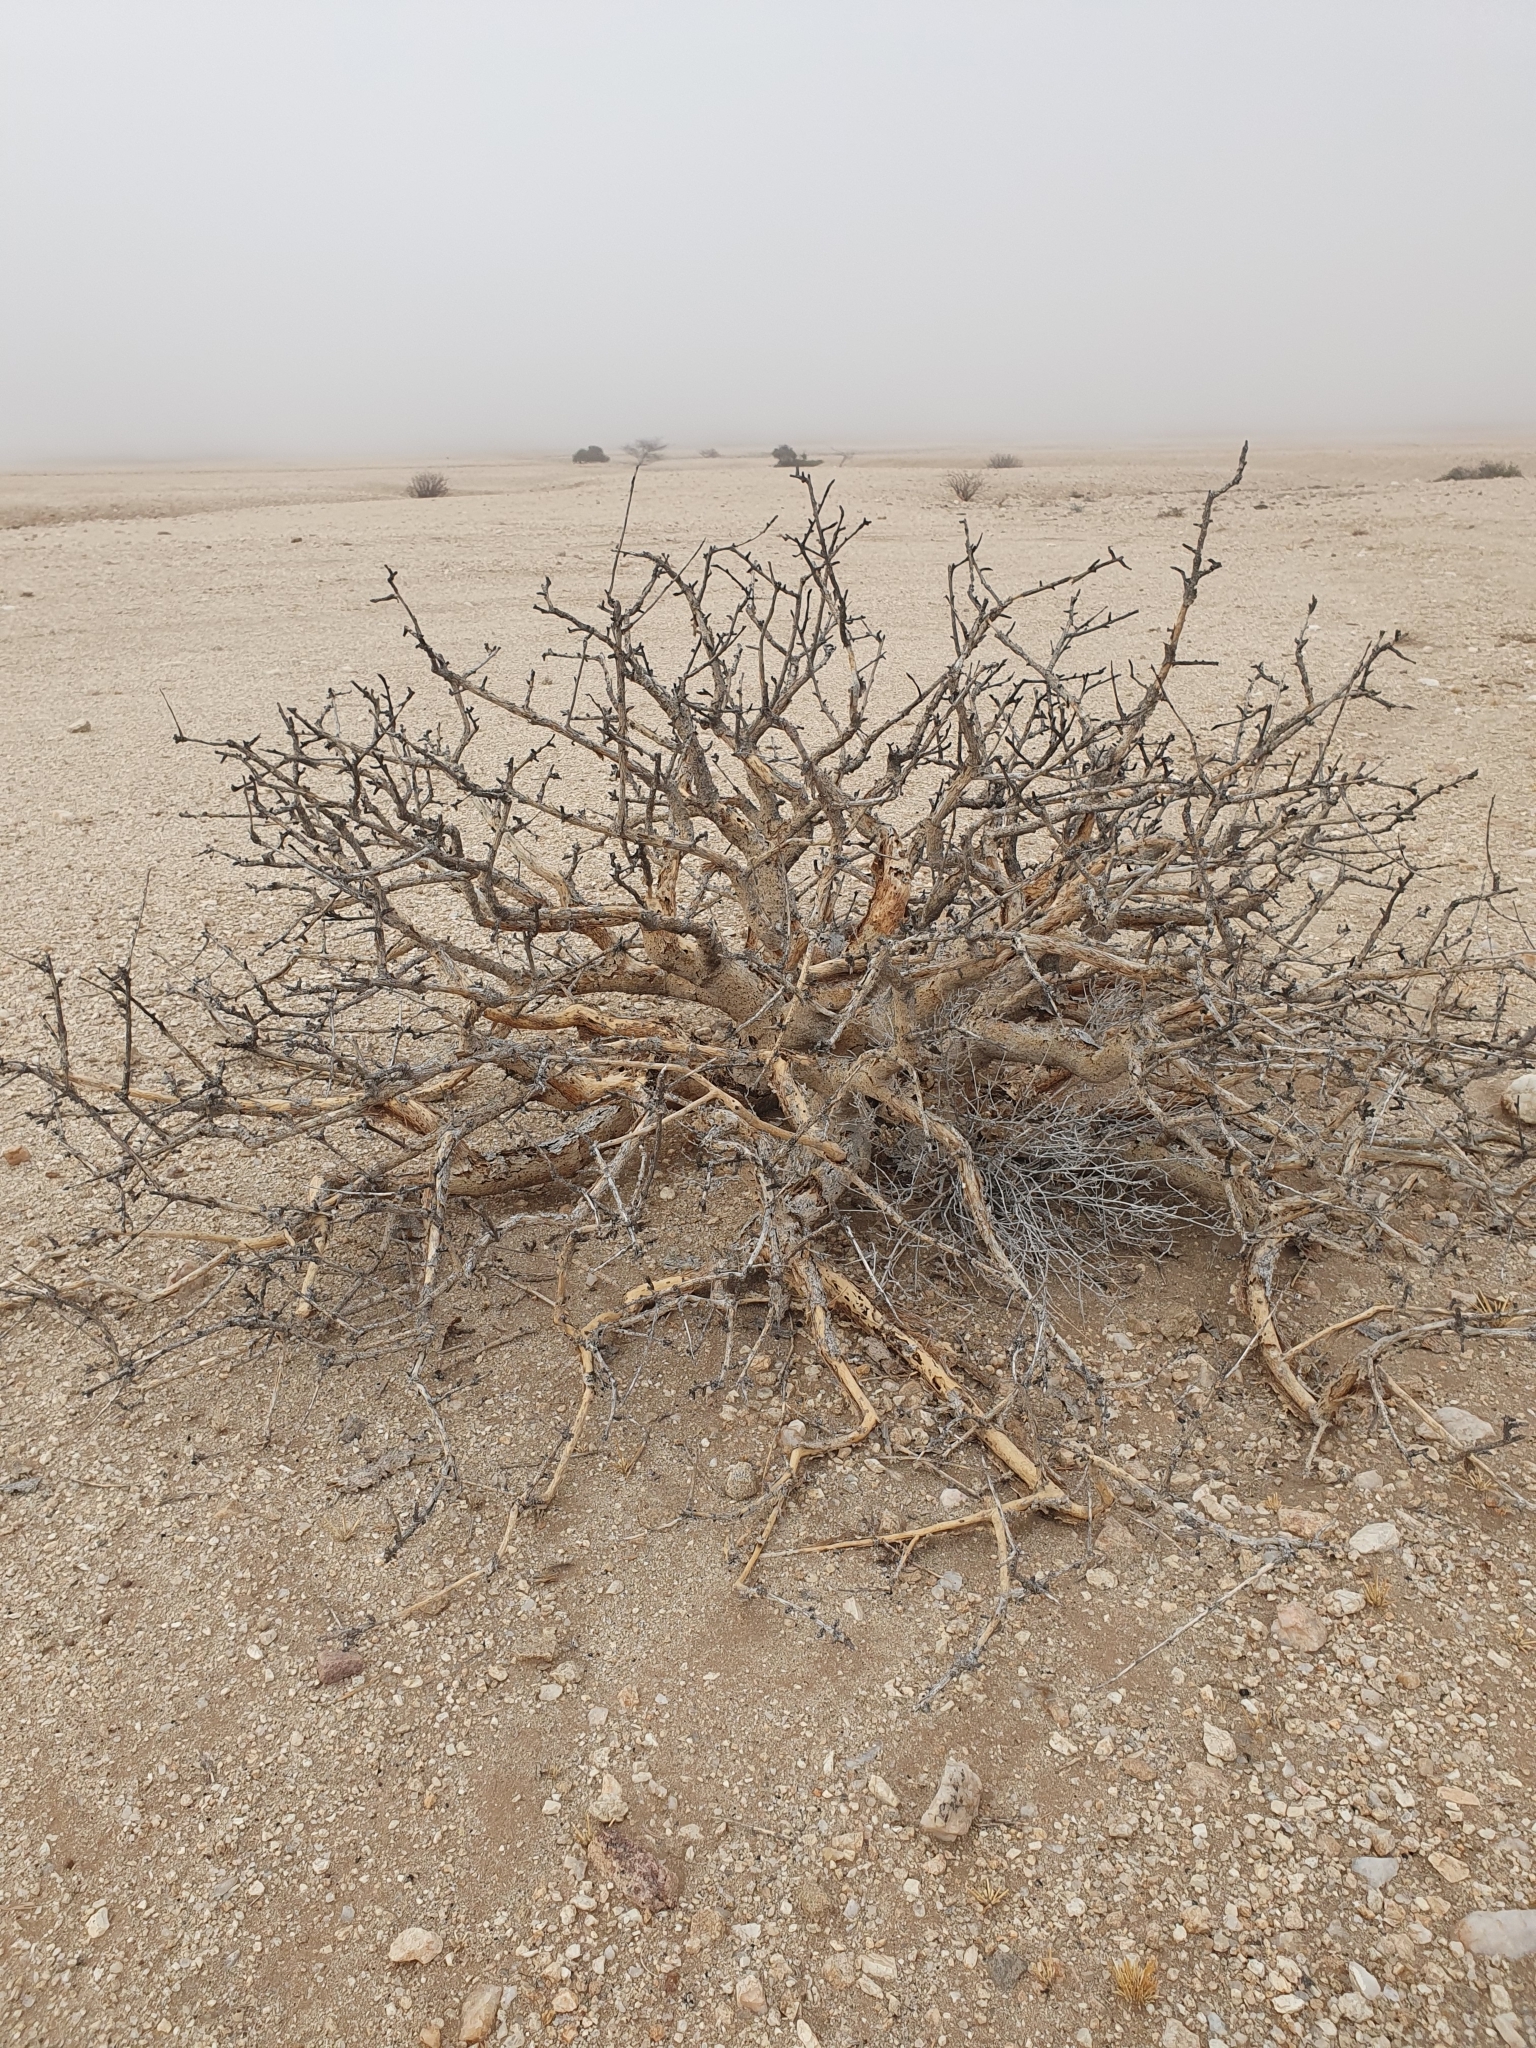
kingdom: Plantae
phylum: Tracheophyta
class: Magnoliopsida
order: Sapindales
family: Burseraceae
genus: Commiphora
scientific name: Commiphora saxicola
